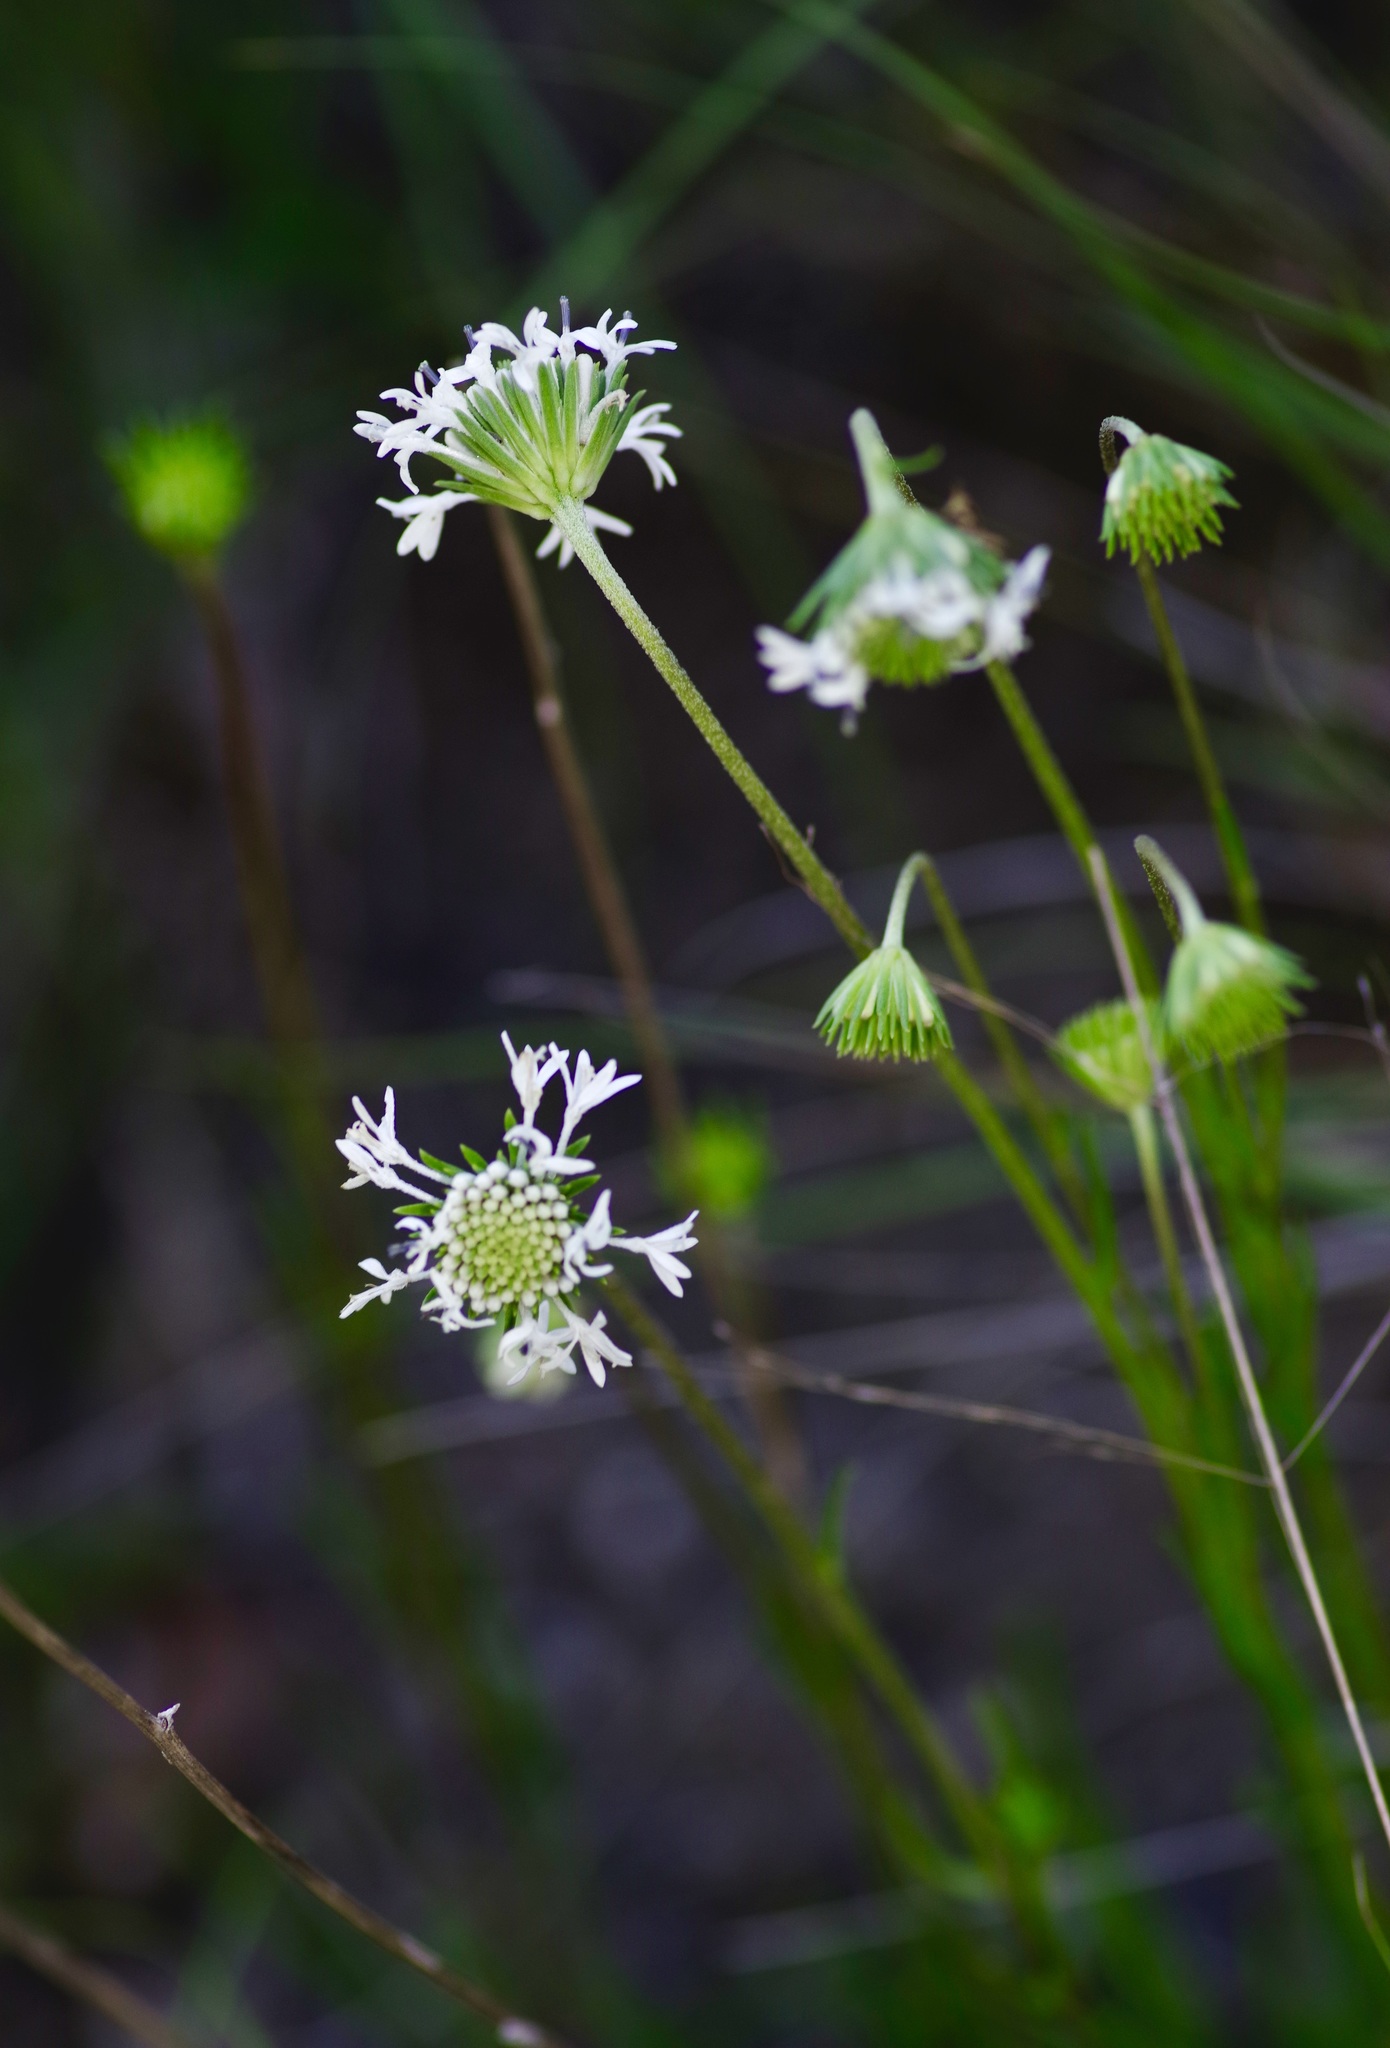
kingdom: Plantae
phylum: Tracheophyta
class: Magnoliopsida
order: Asterales
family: Asteraceae
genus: Marshallia
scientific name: Marshallia caespitosa
